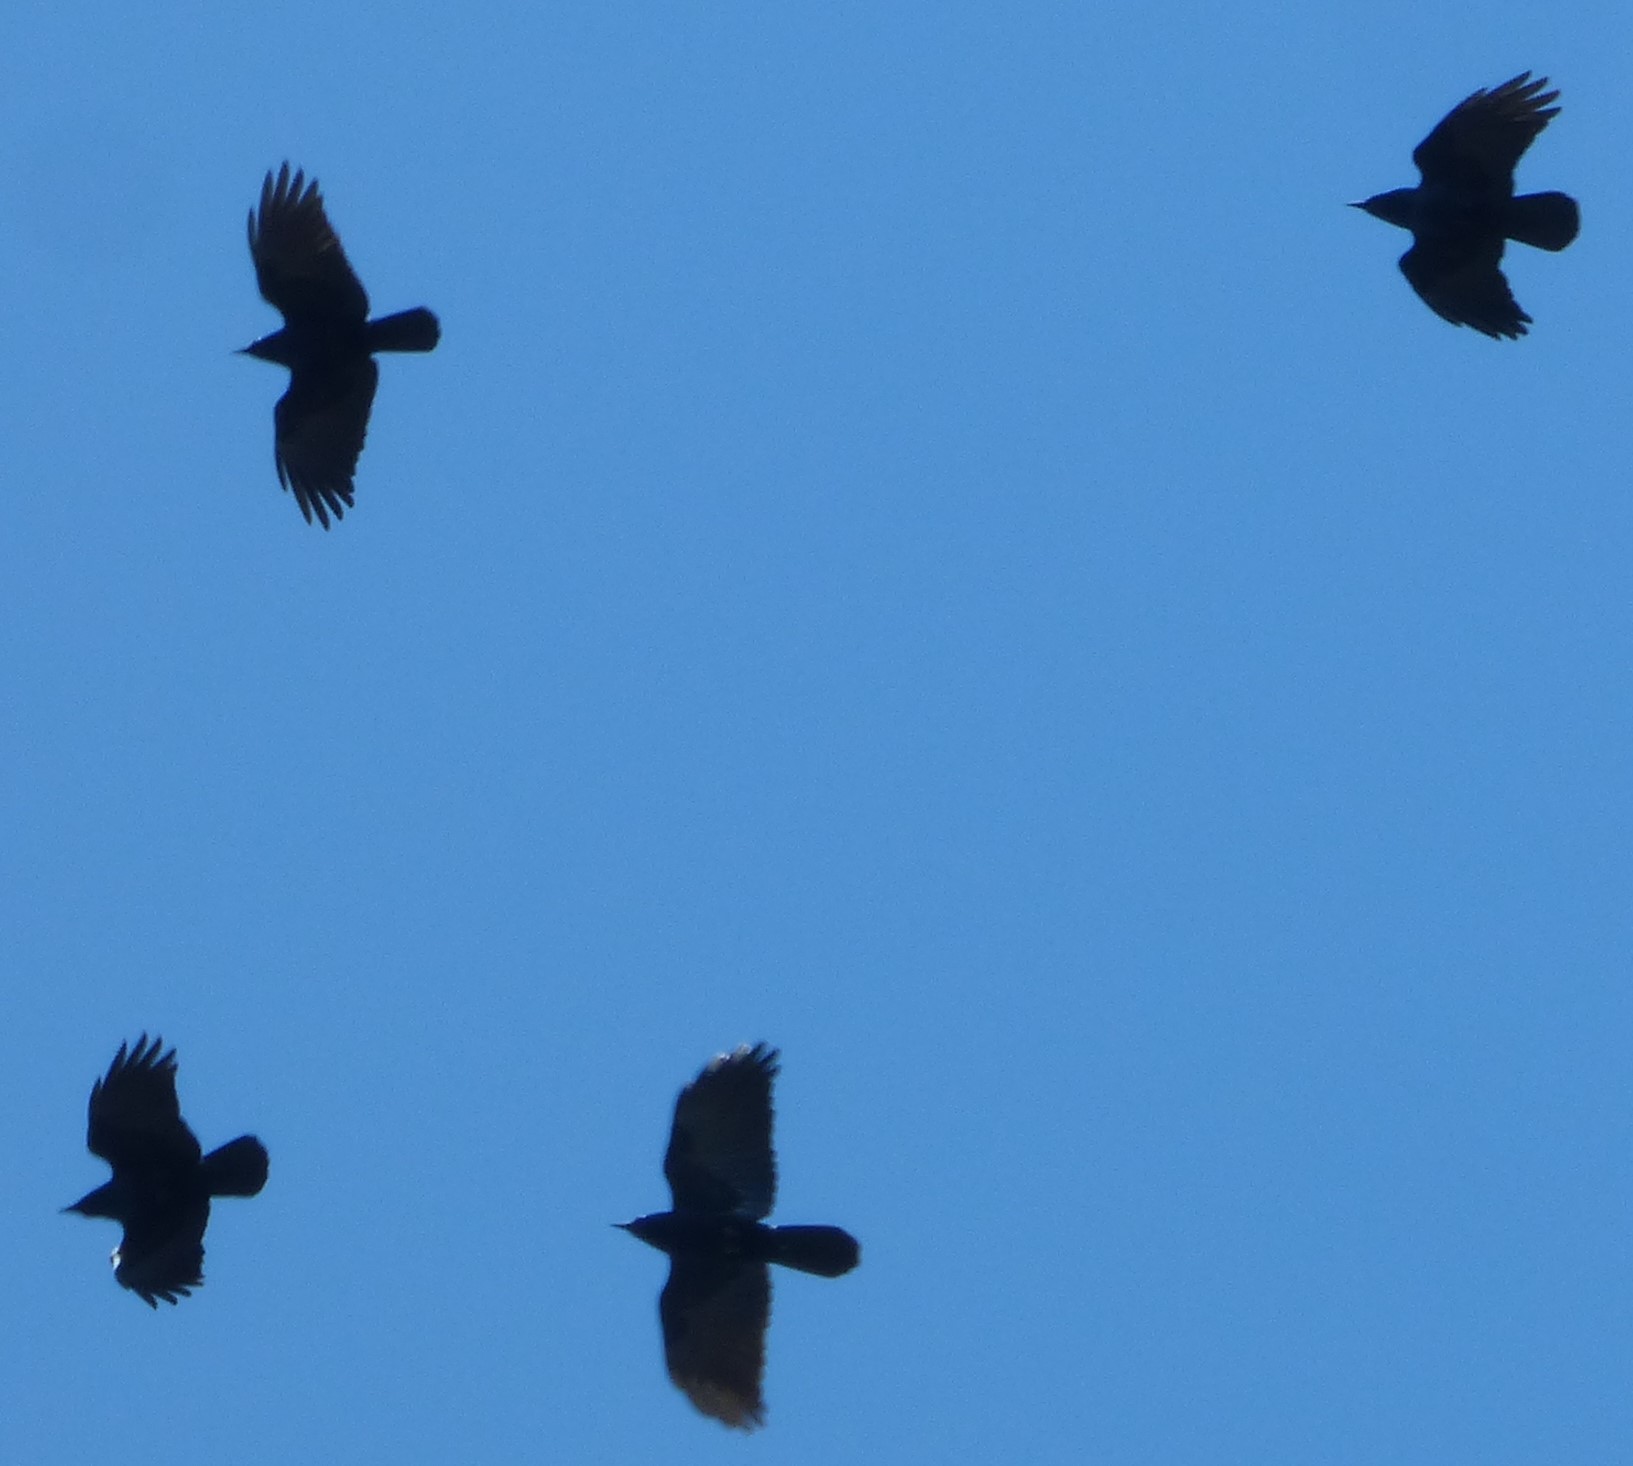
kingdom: Animalia
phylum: Chordata
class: Aves
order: Passeriformes
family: Corvidae
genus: Corvus
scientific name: Corvus brachyrhynchos
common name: American crow
